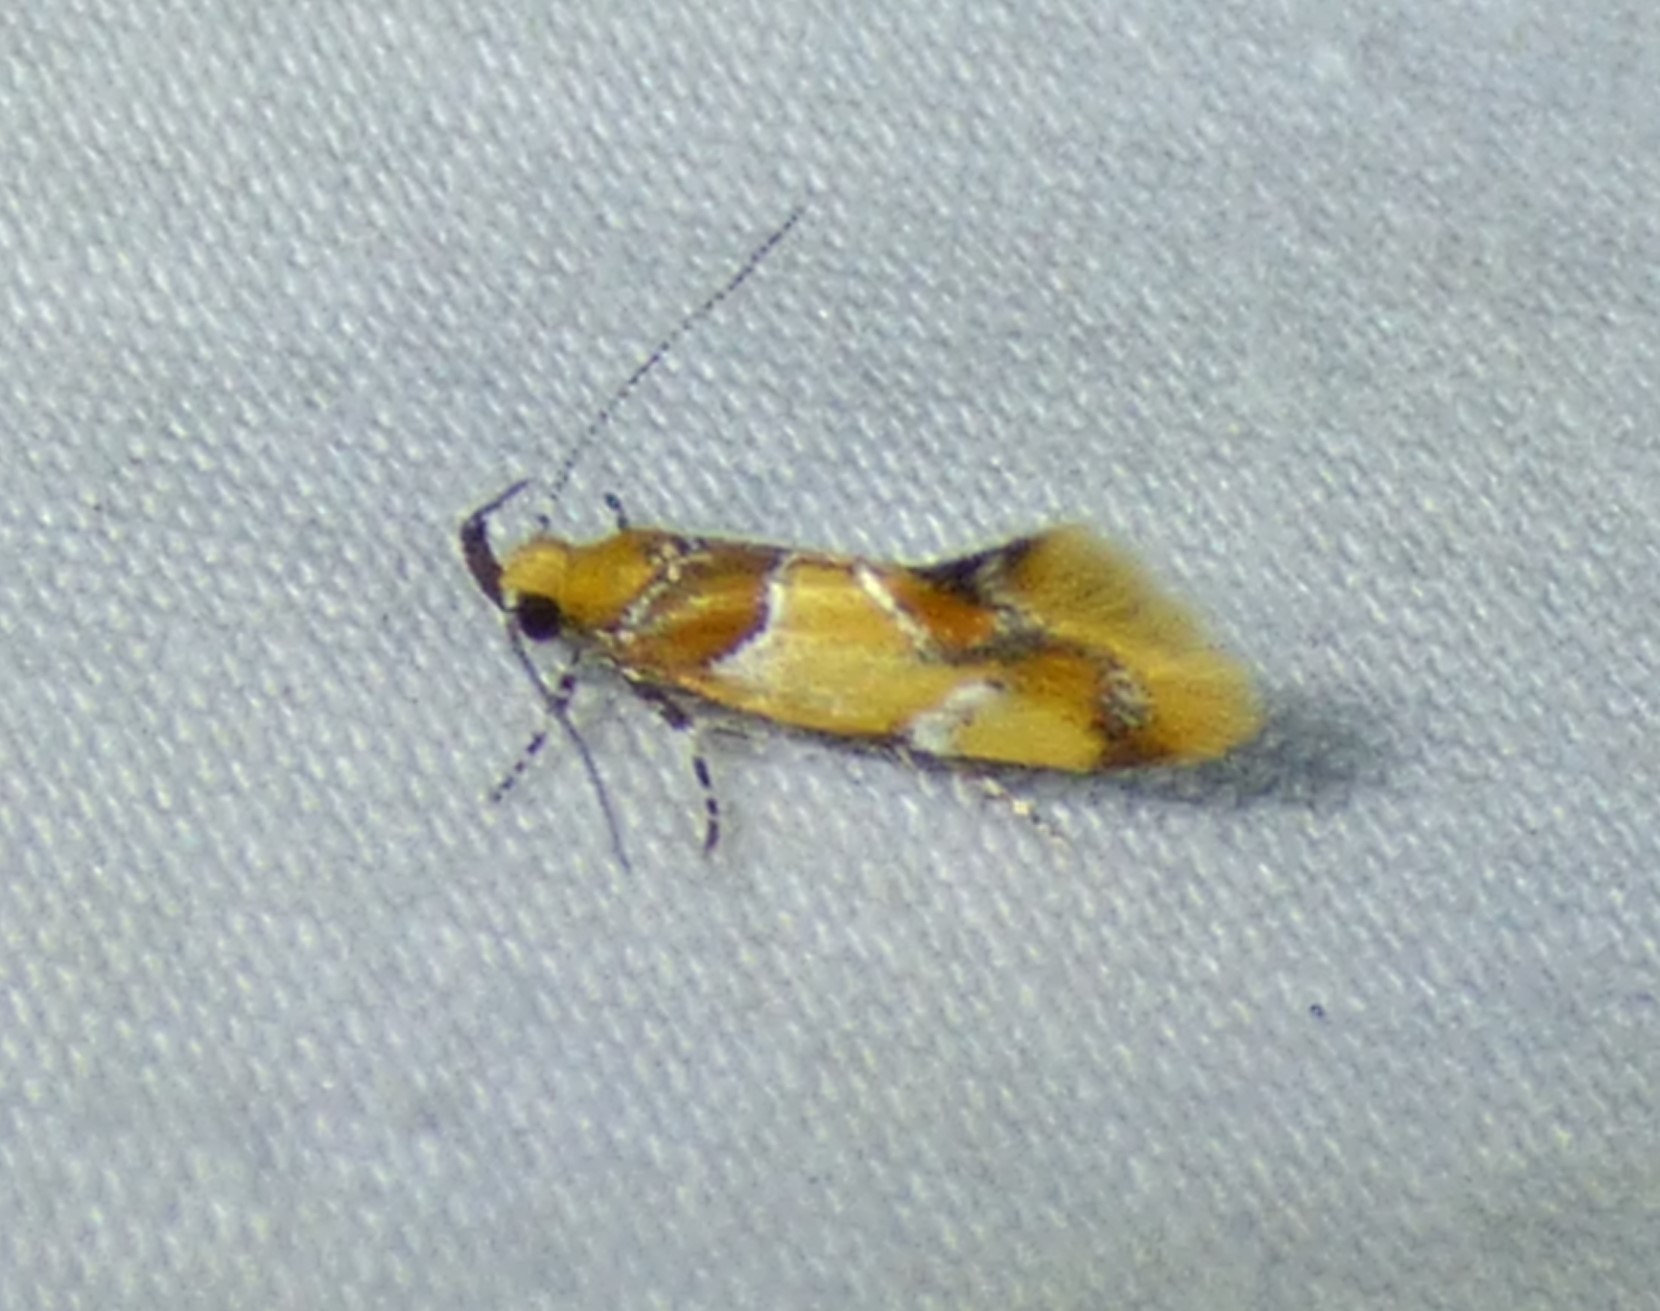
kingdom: Animalia
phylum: Arthropoda
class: Insecta
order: Lepidoptera
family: Oecophoridae
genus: Callima
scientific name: Callima argenticinctella
